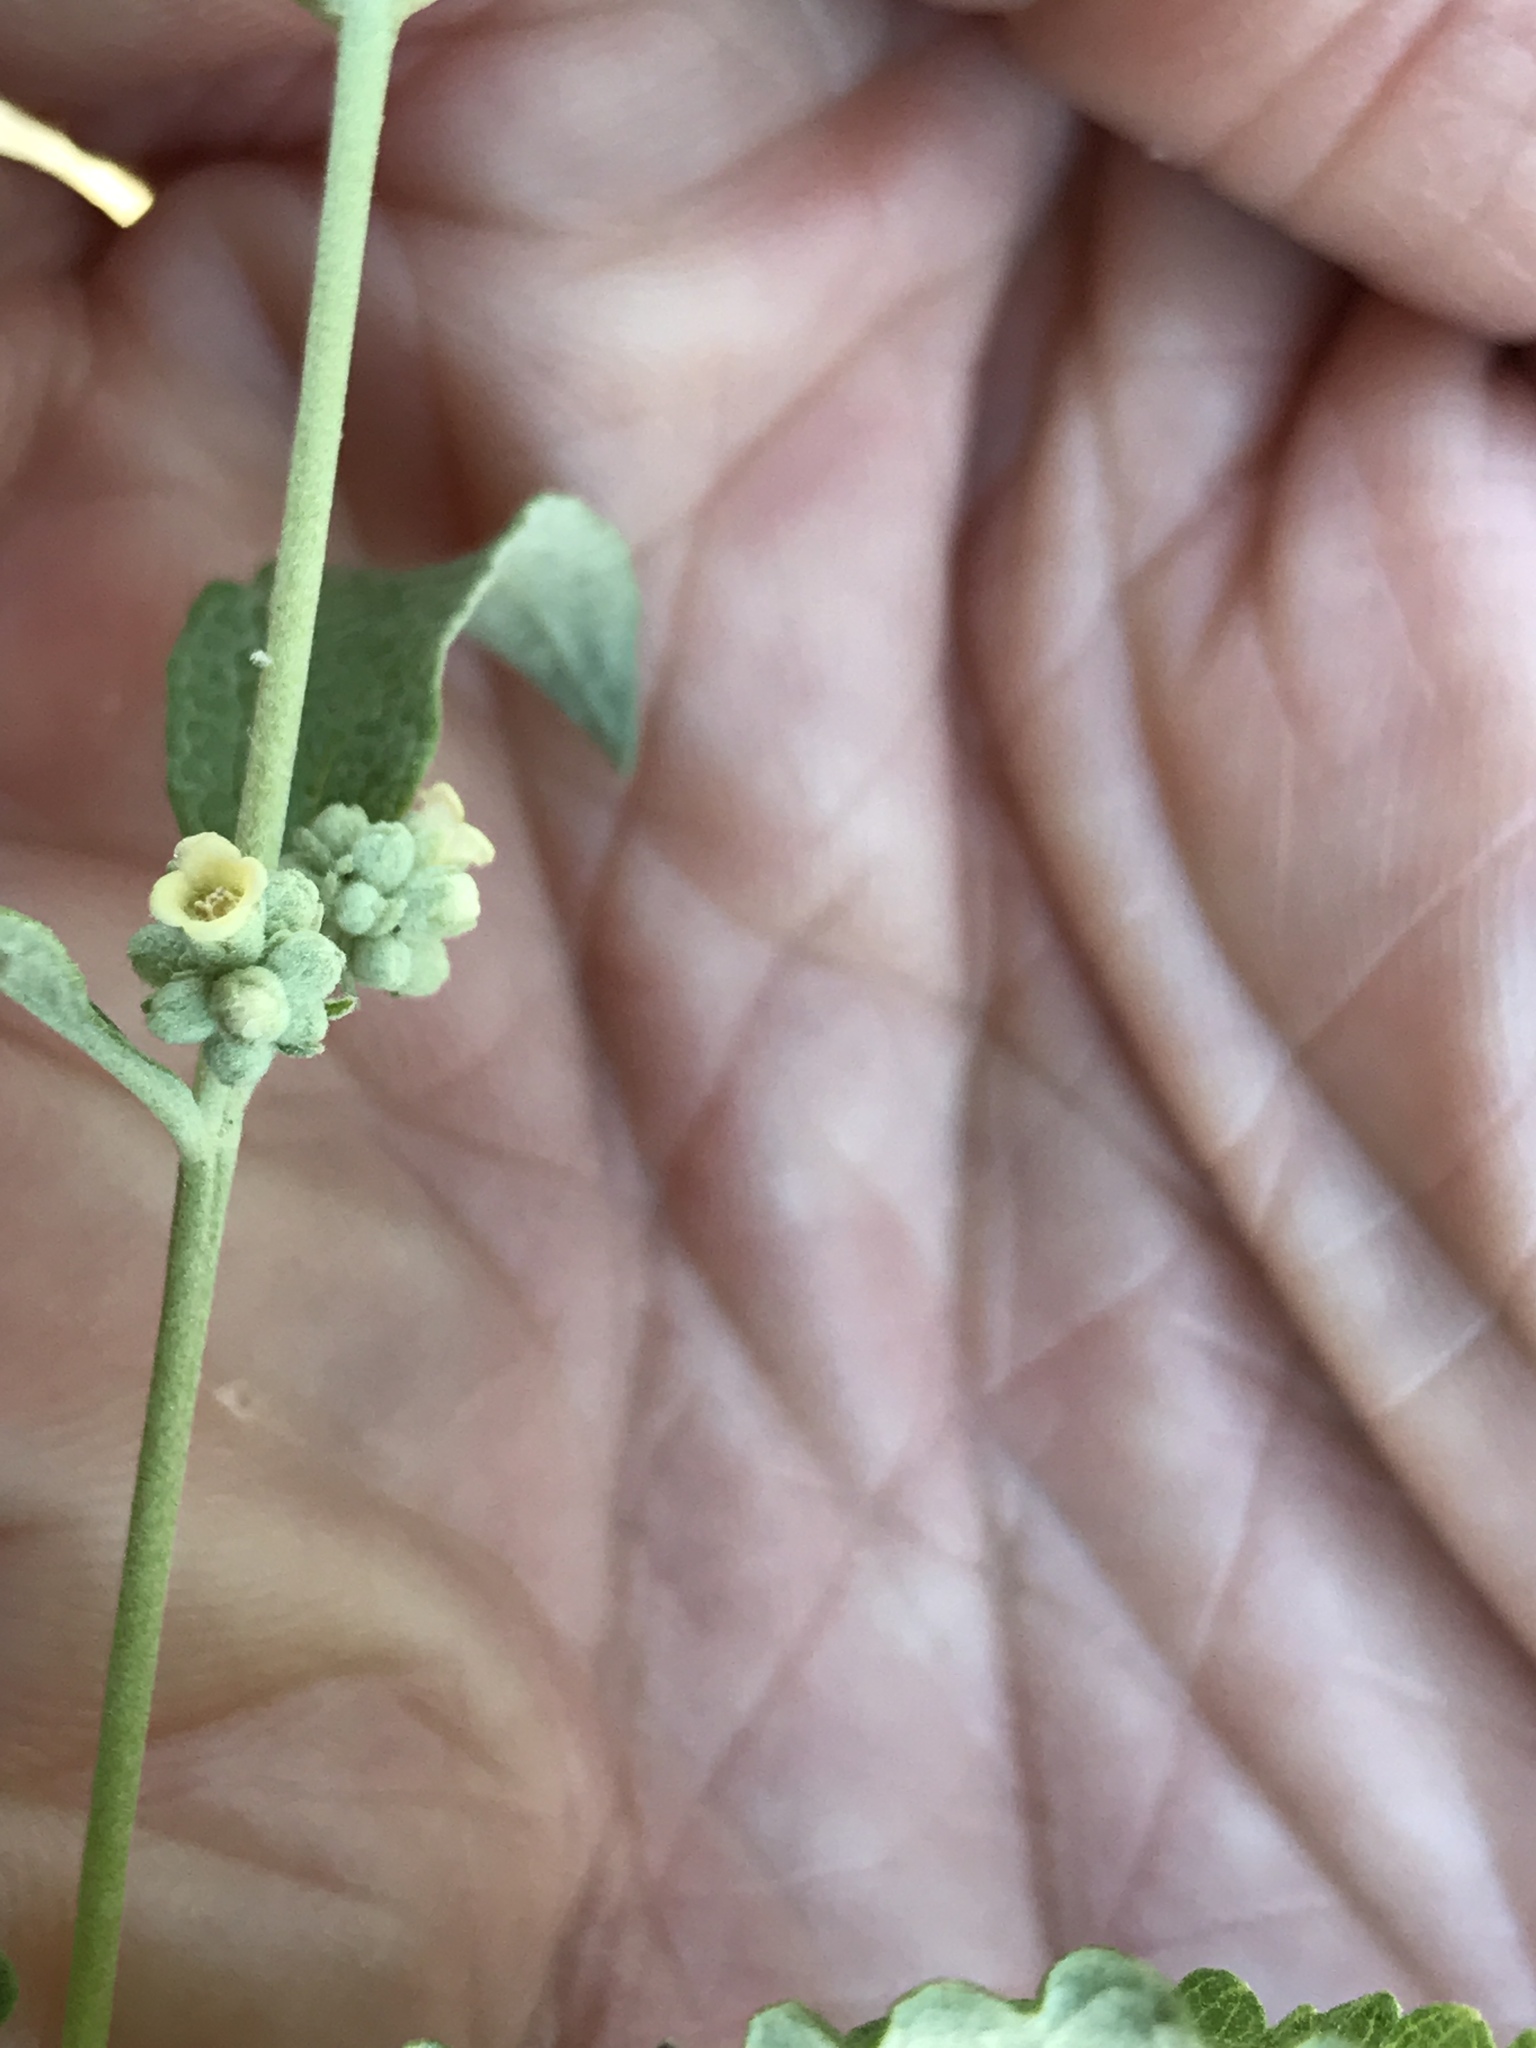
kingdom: Plantae
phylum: Tracheophyta
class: Magnoliopsida
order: Lamiales
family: Scrophulariaceae
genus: Buddleja
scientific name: Buddleja racemosa
